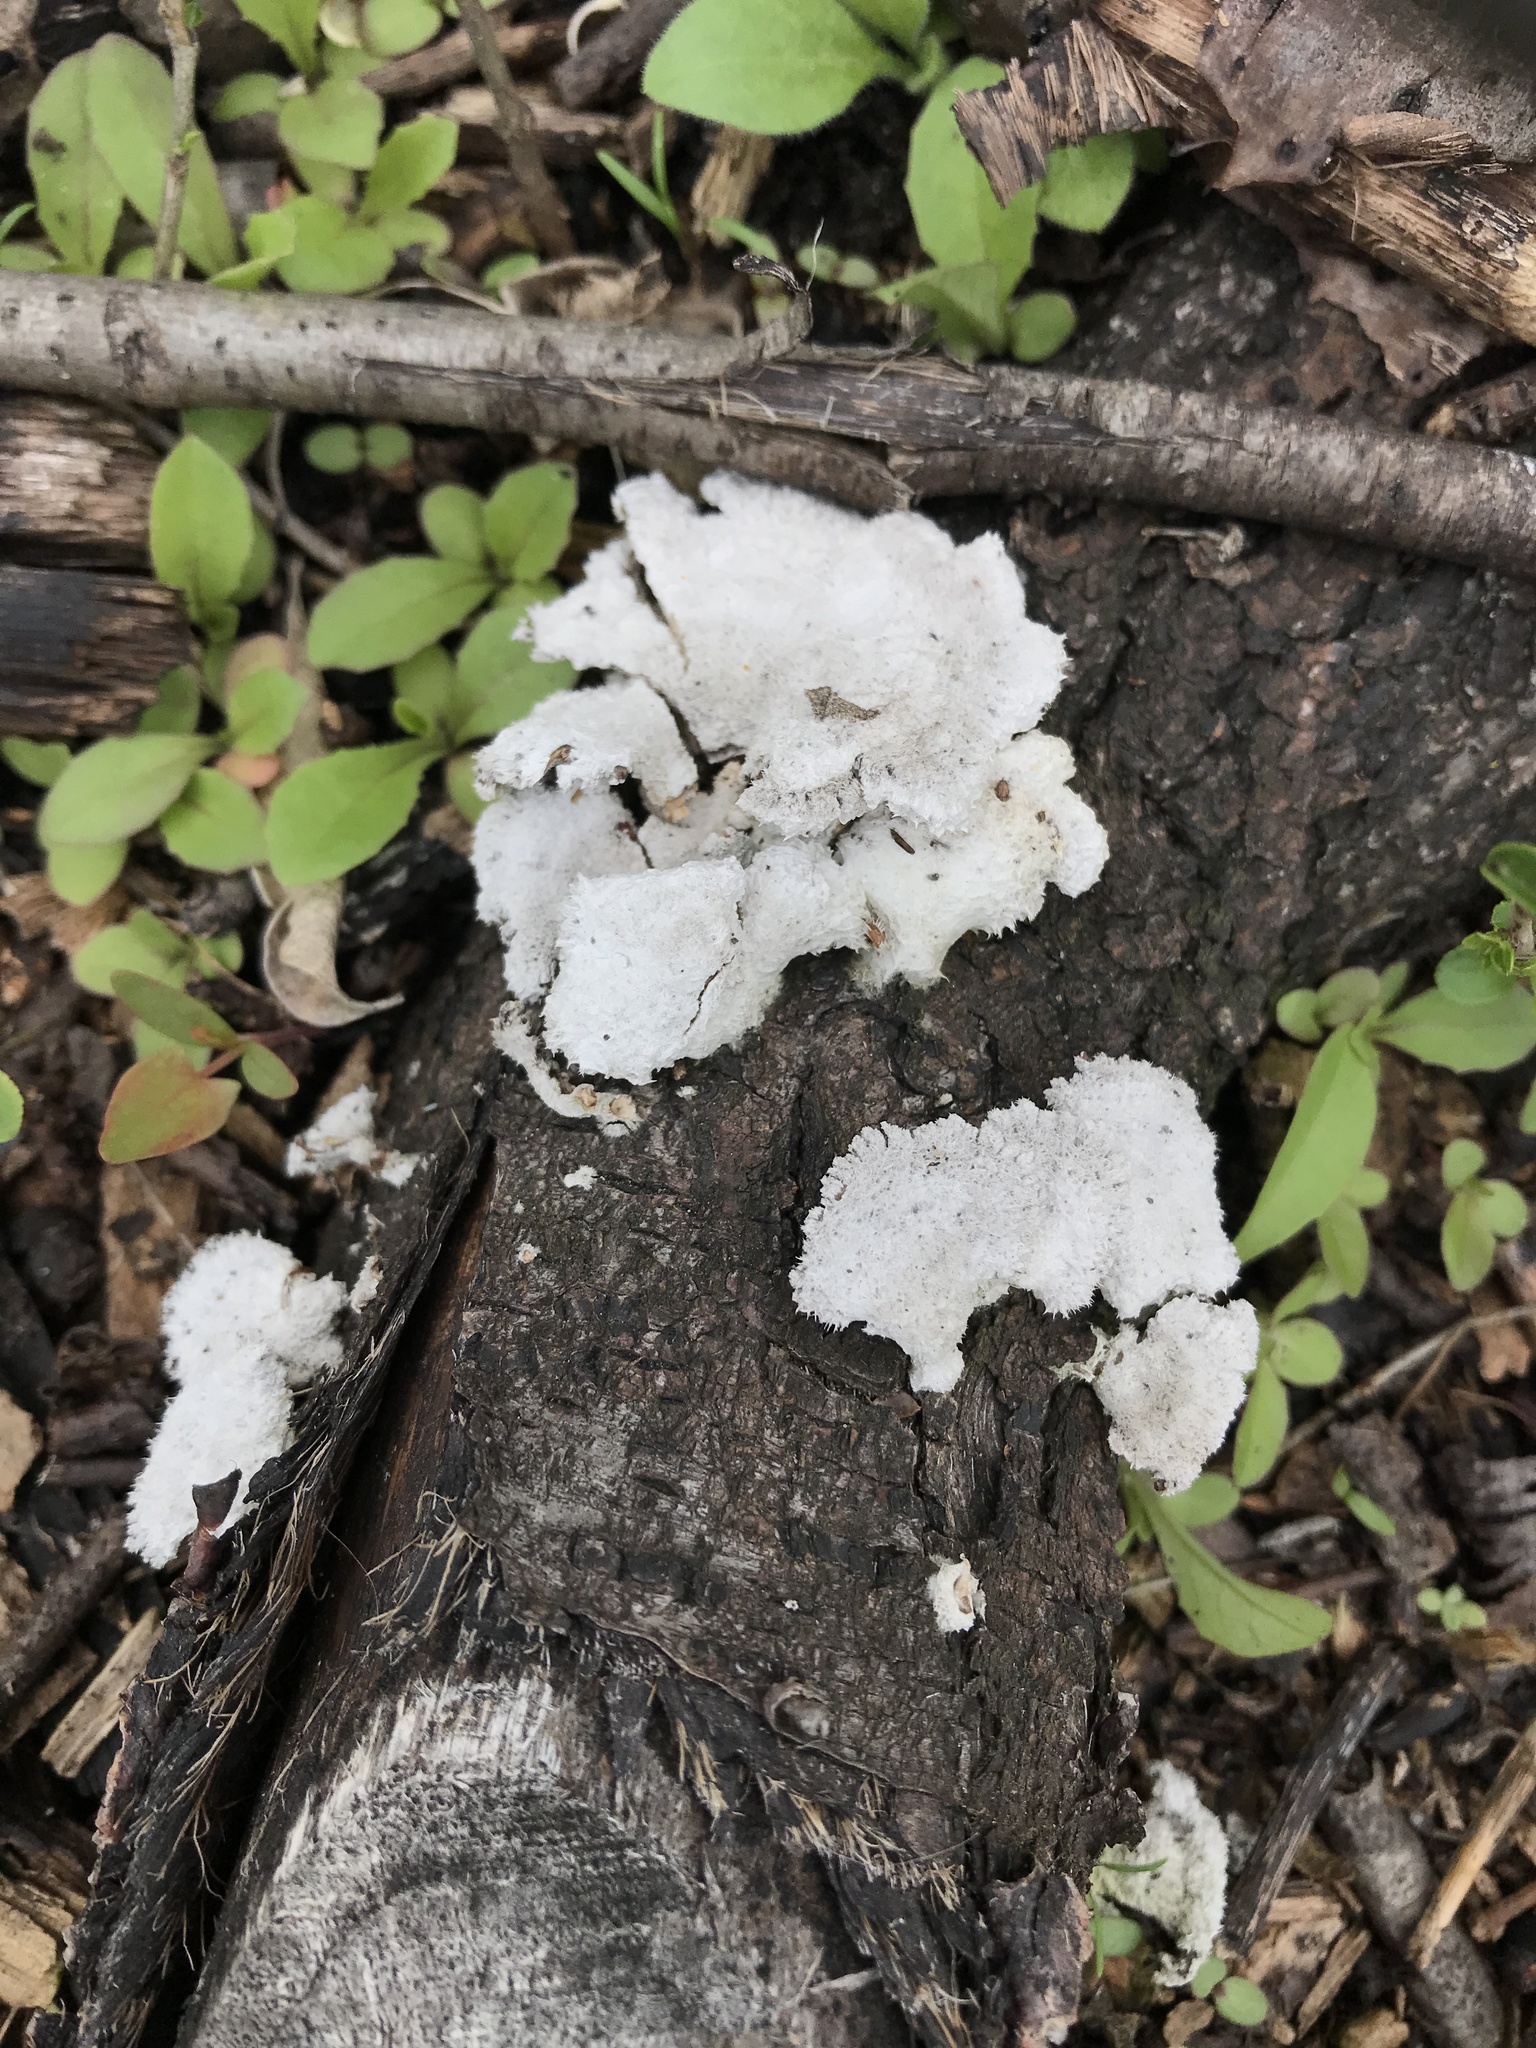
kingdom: Fungi
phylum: Basidiomycota
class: Agaricomycetes
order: Agaricales
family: Schizophyllaceae
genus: Schizophyllum
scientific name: Schizophyllum commune
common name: Common porecrust
